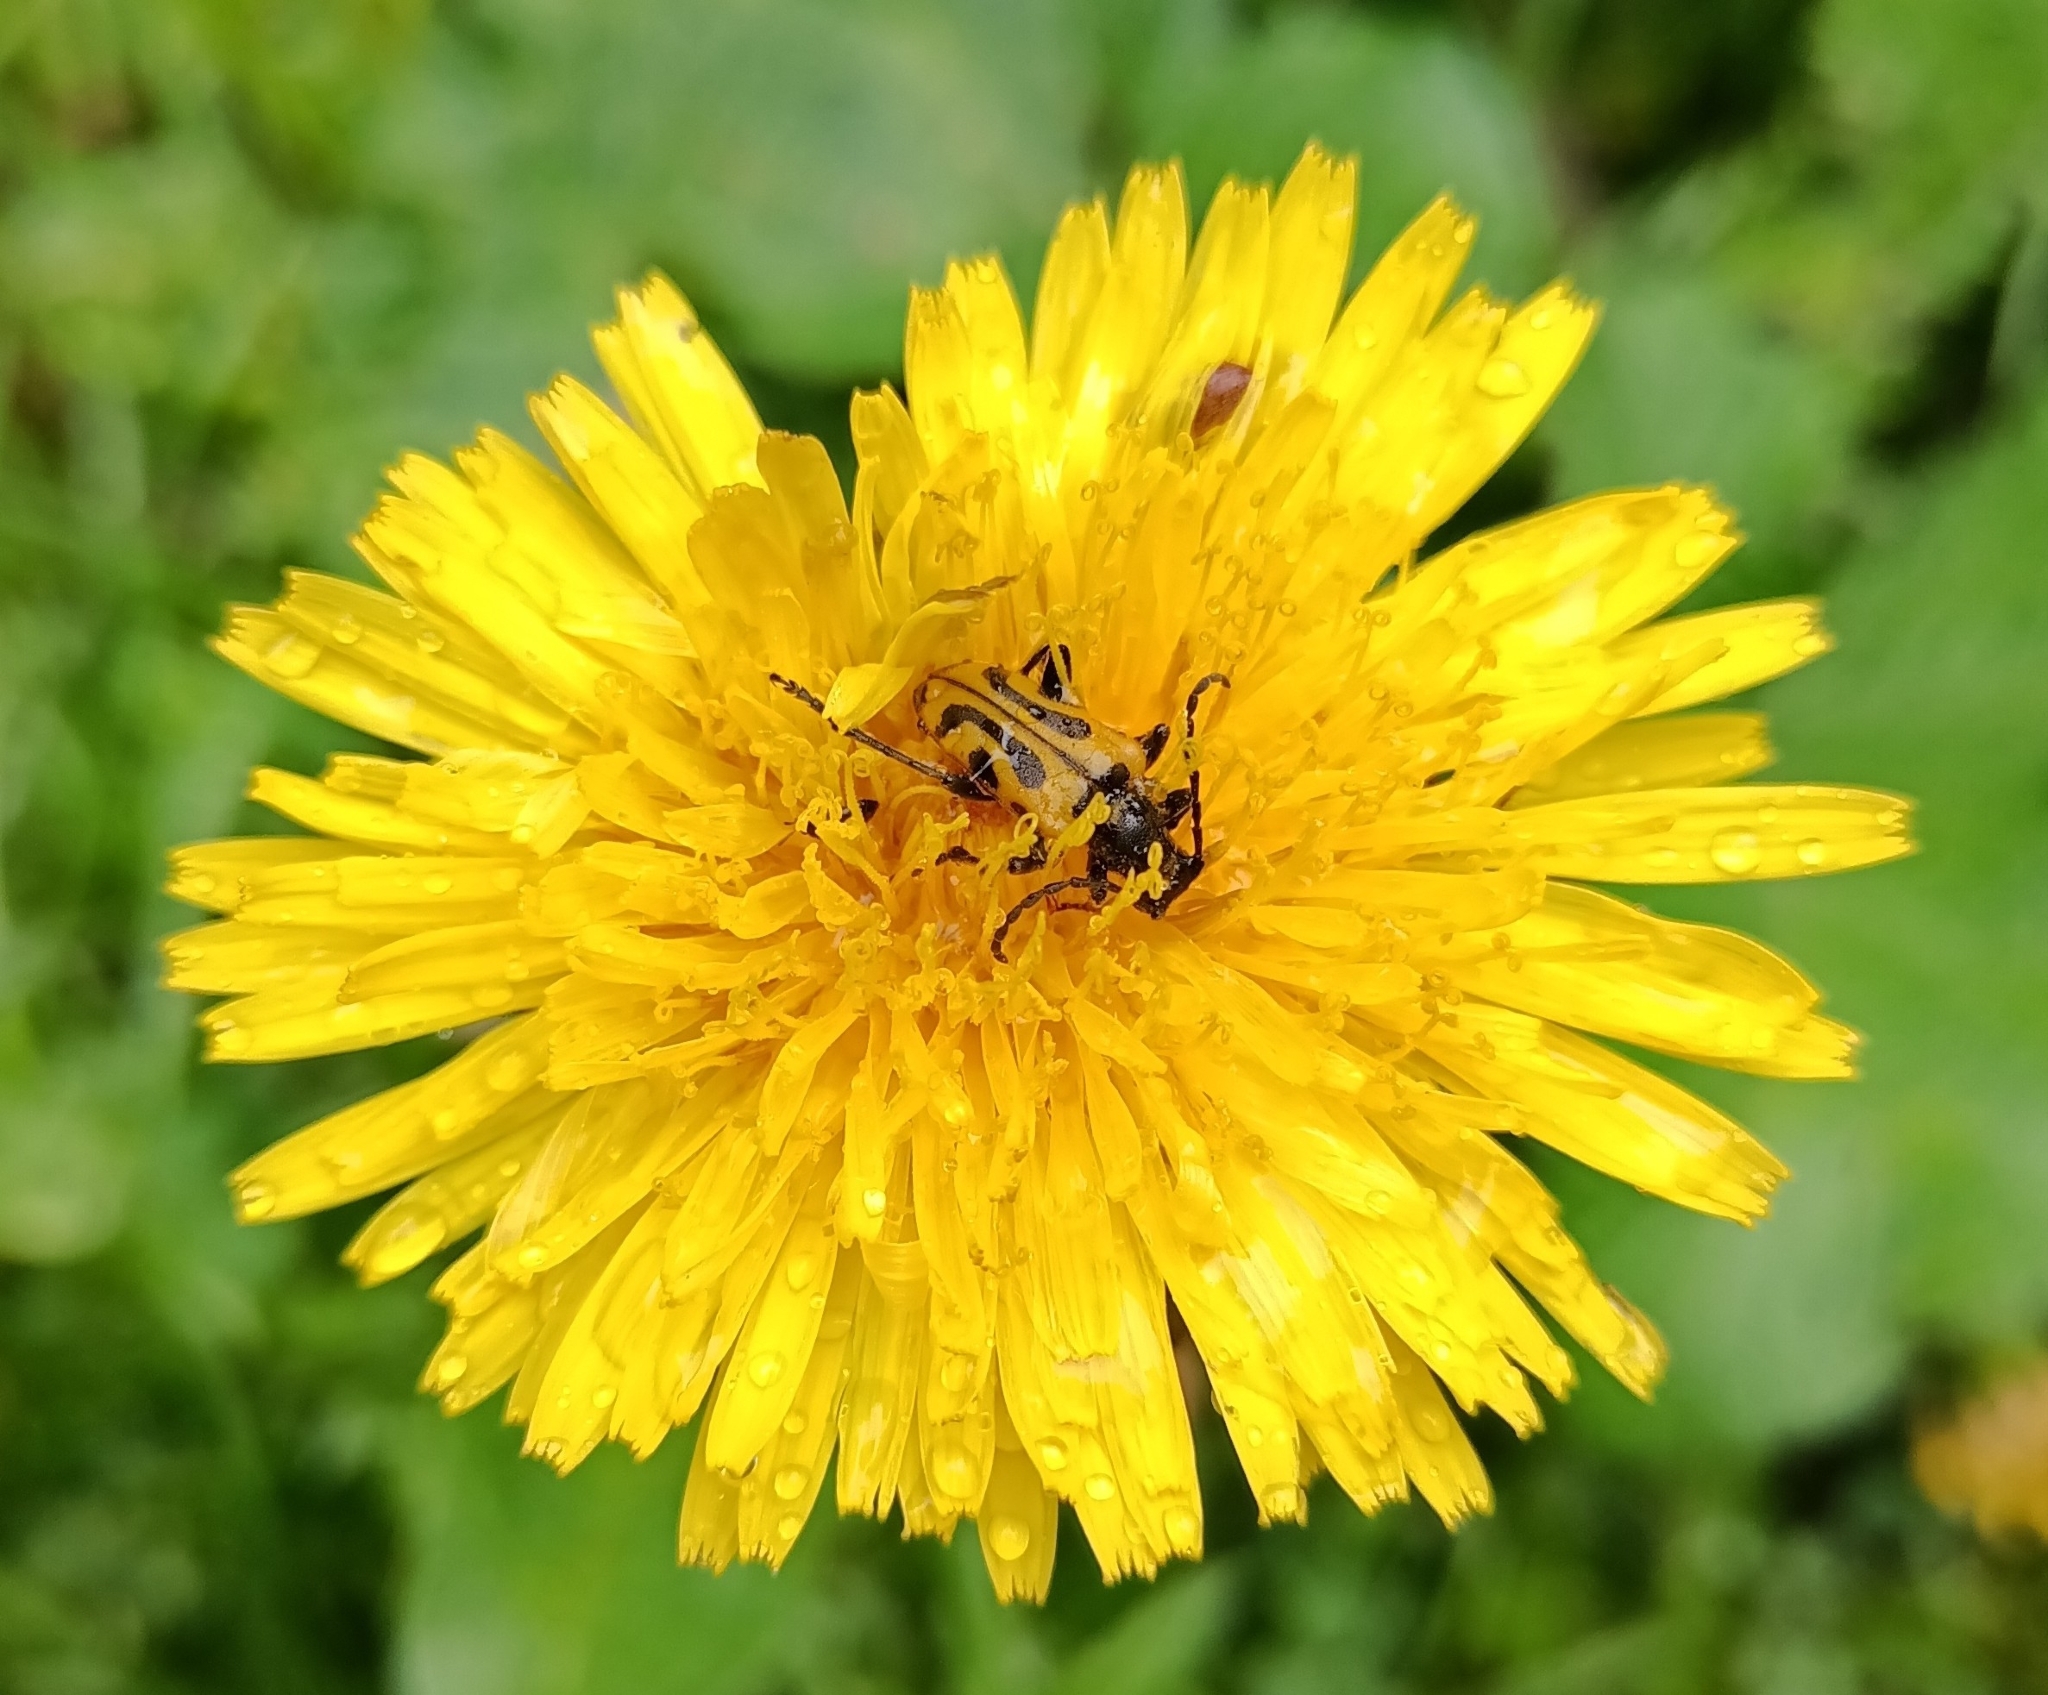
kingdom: Animalia
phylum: Arthropoda
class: Insecta
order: Coleoptera
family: Cerambycidae
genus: Brachyta
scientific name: Brachyta interrogationis
